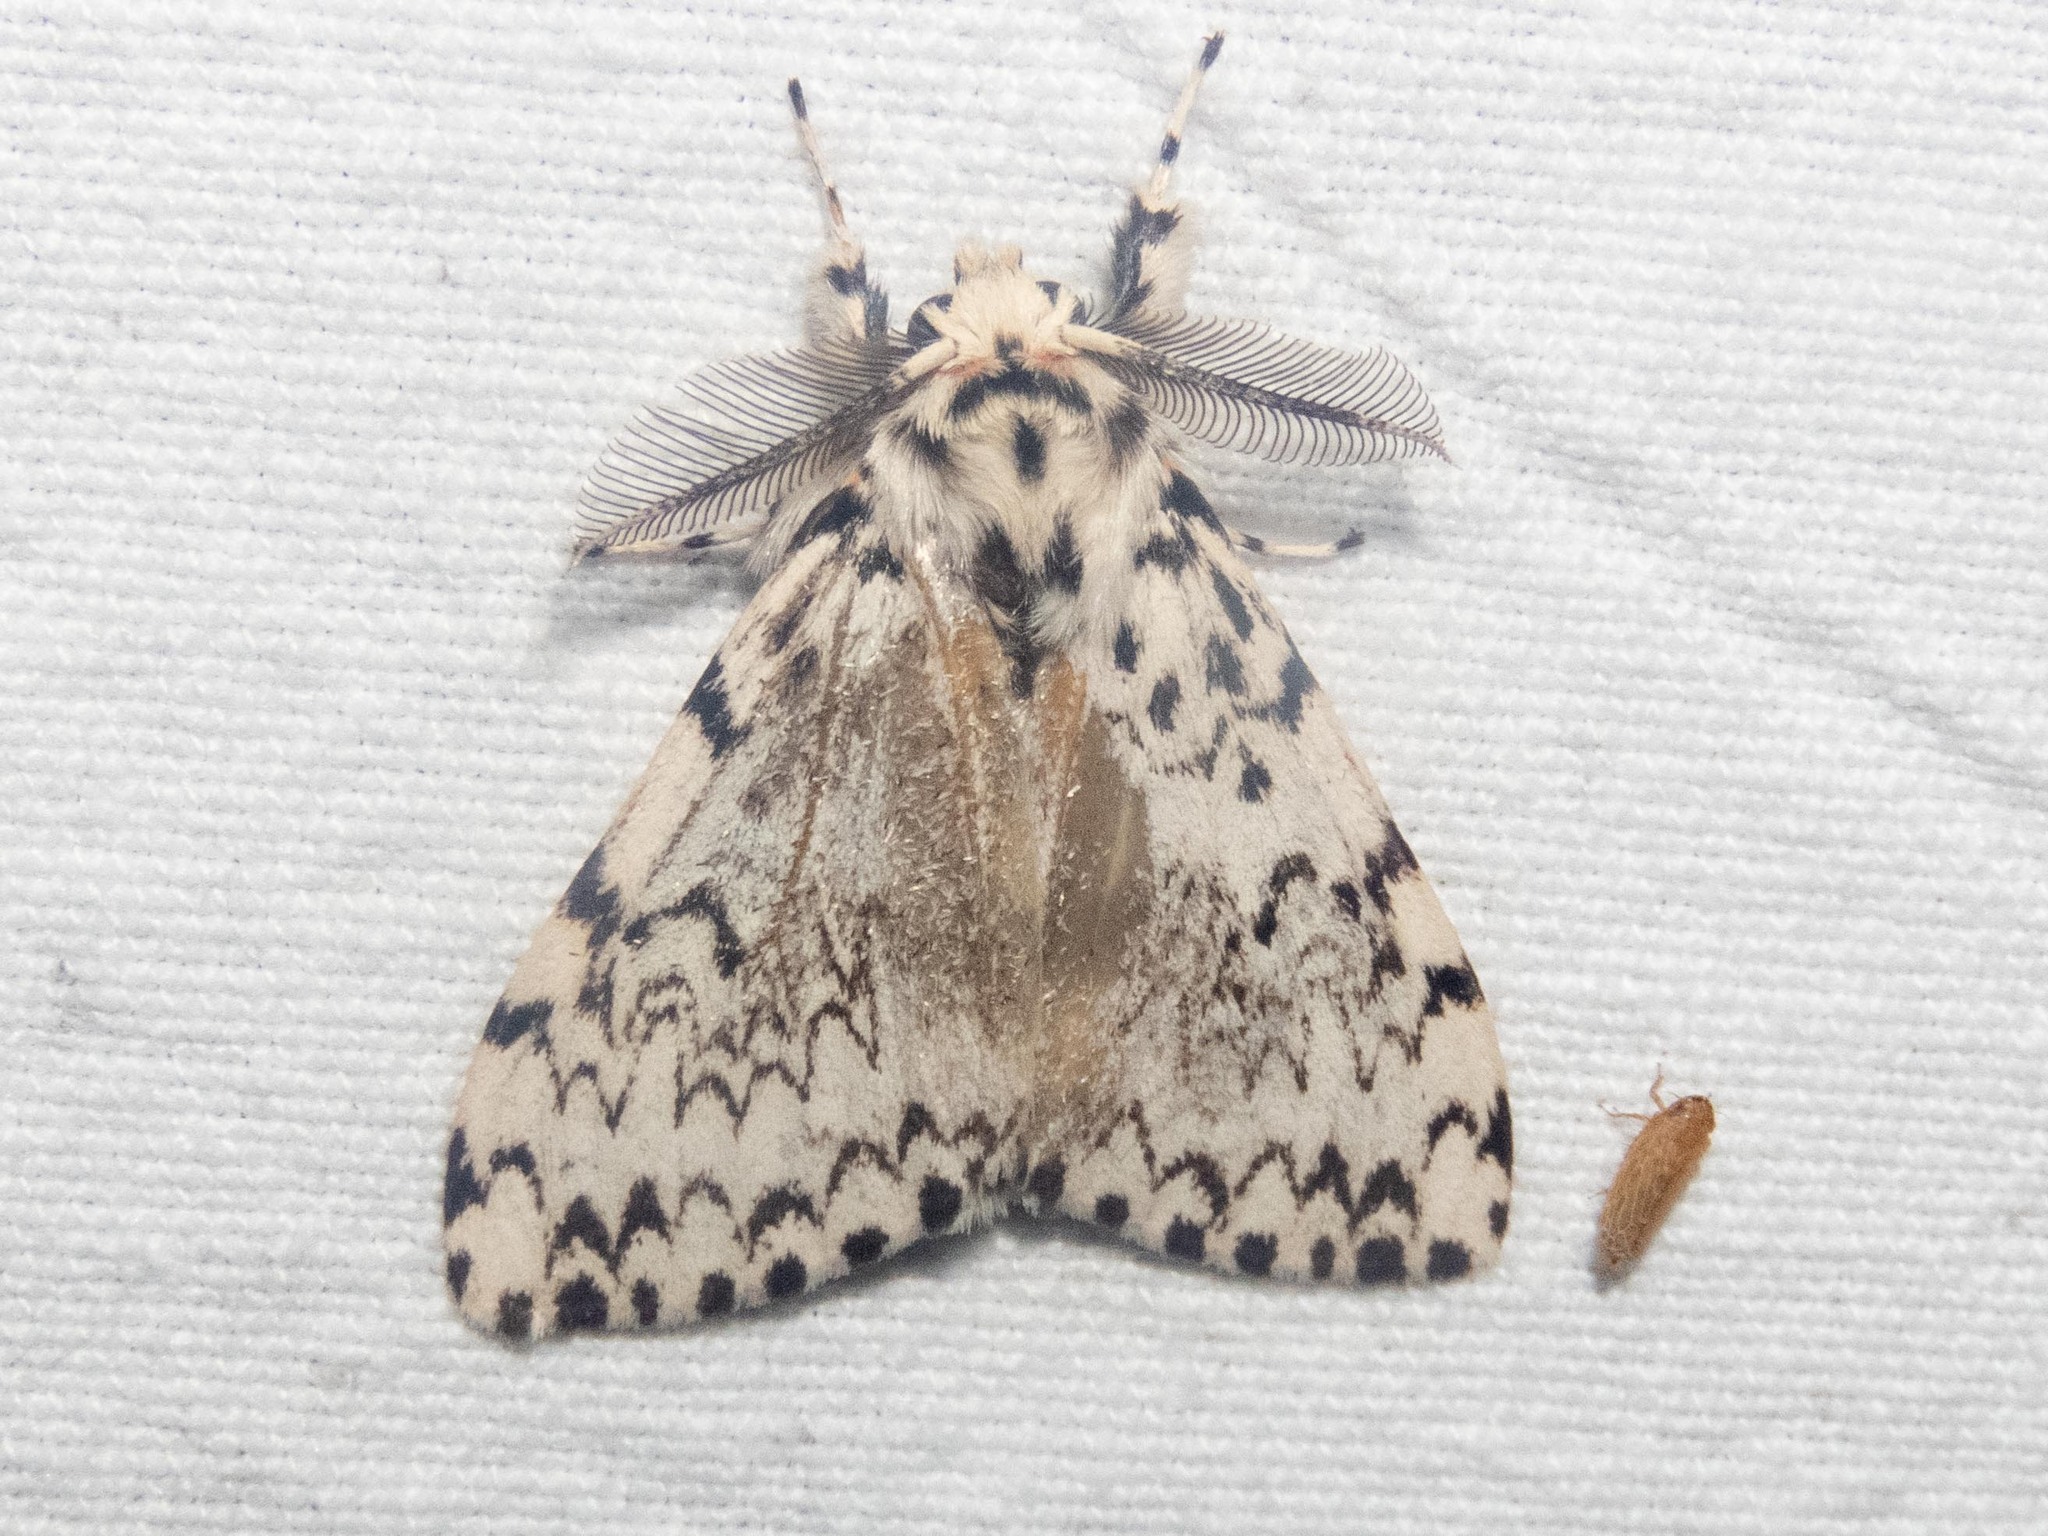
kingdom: Animalia
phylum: Arthropoda
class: Insecta
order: Lepidoptera
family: Erebidae
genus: Lymantria
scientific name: Lymantria monacha
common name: Black arches
